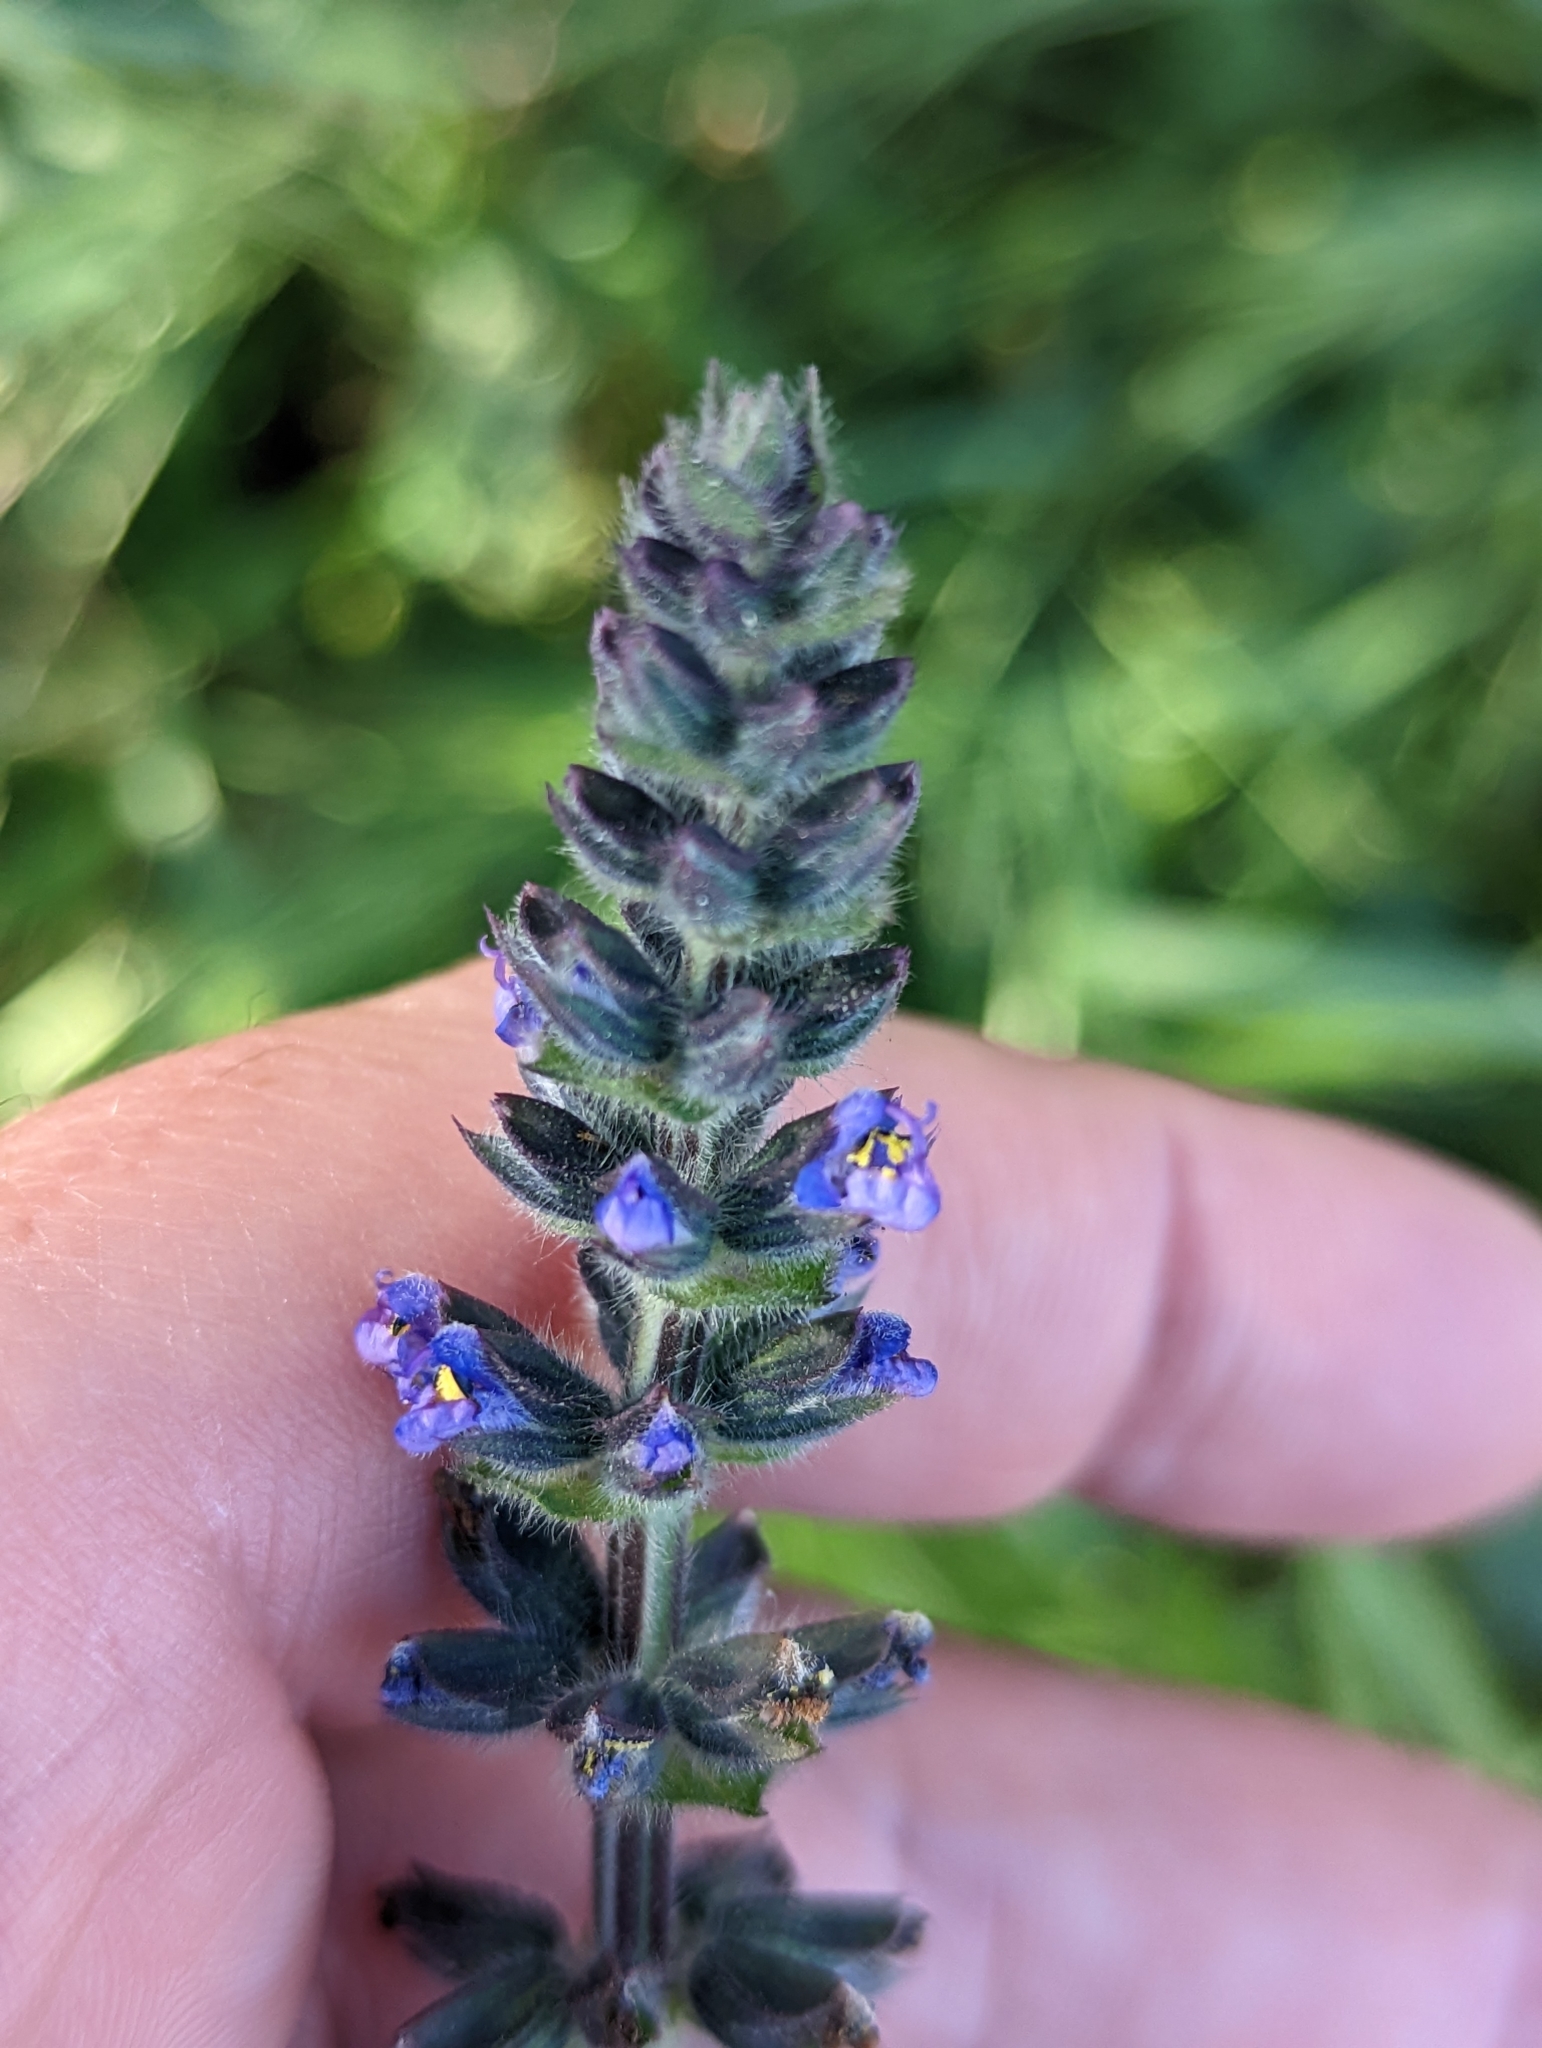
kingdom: Plantae
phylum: Tracheophyta
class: Magnoliopsida
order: Lamiales
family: Lamiaceae
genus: Salvia
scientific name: Salvia verbenaca
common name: Wild clary
